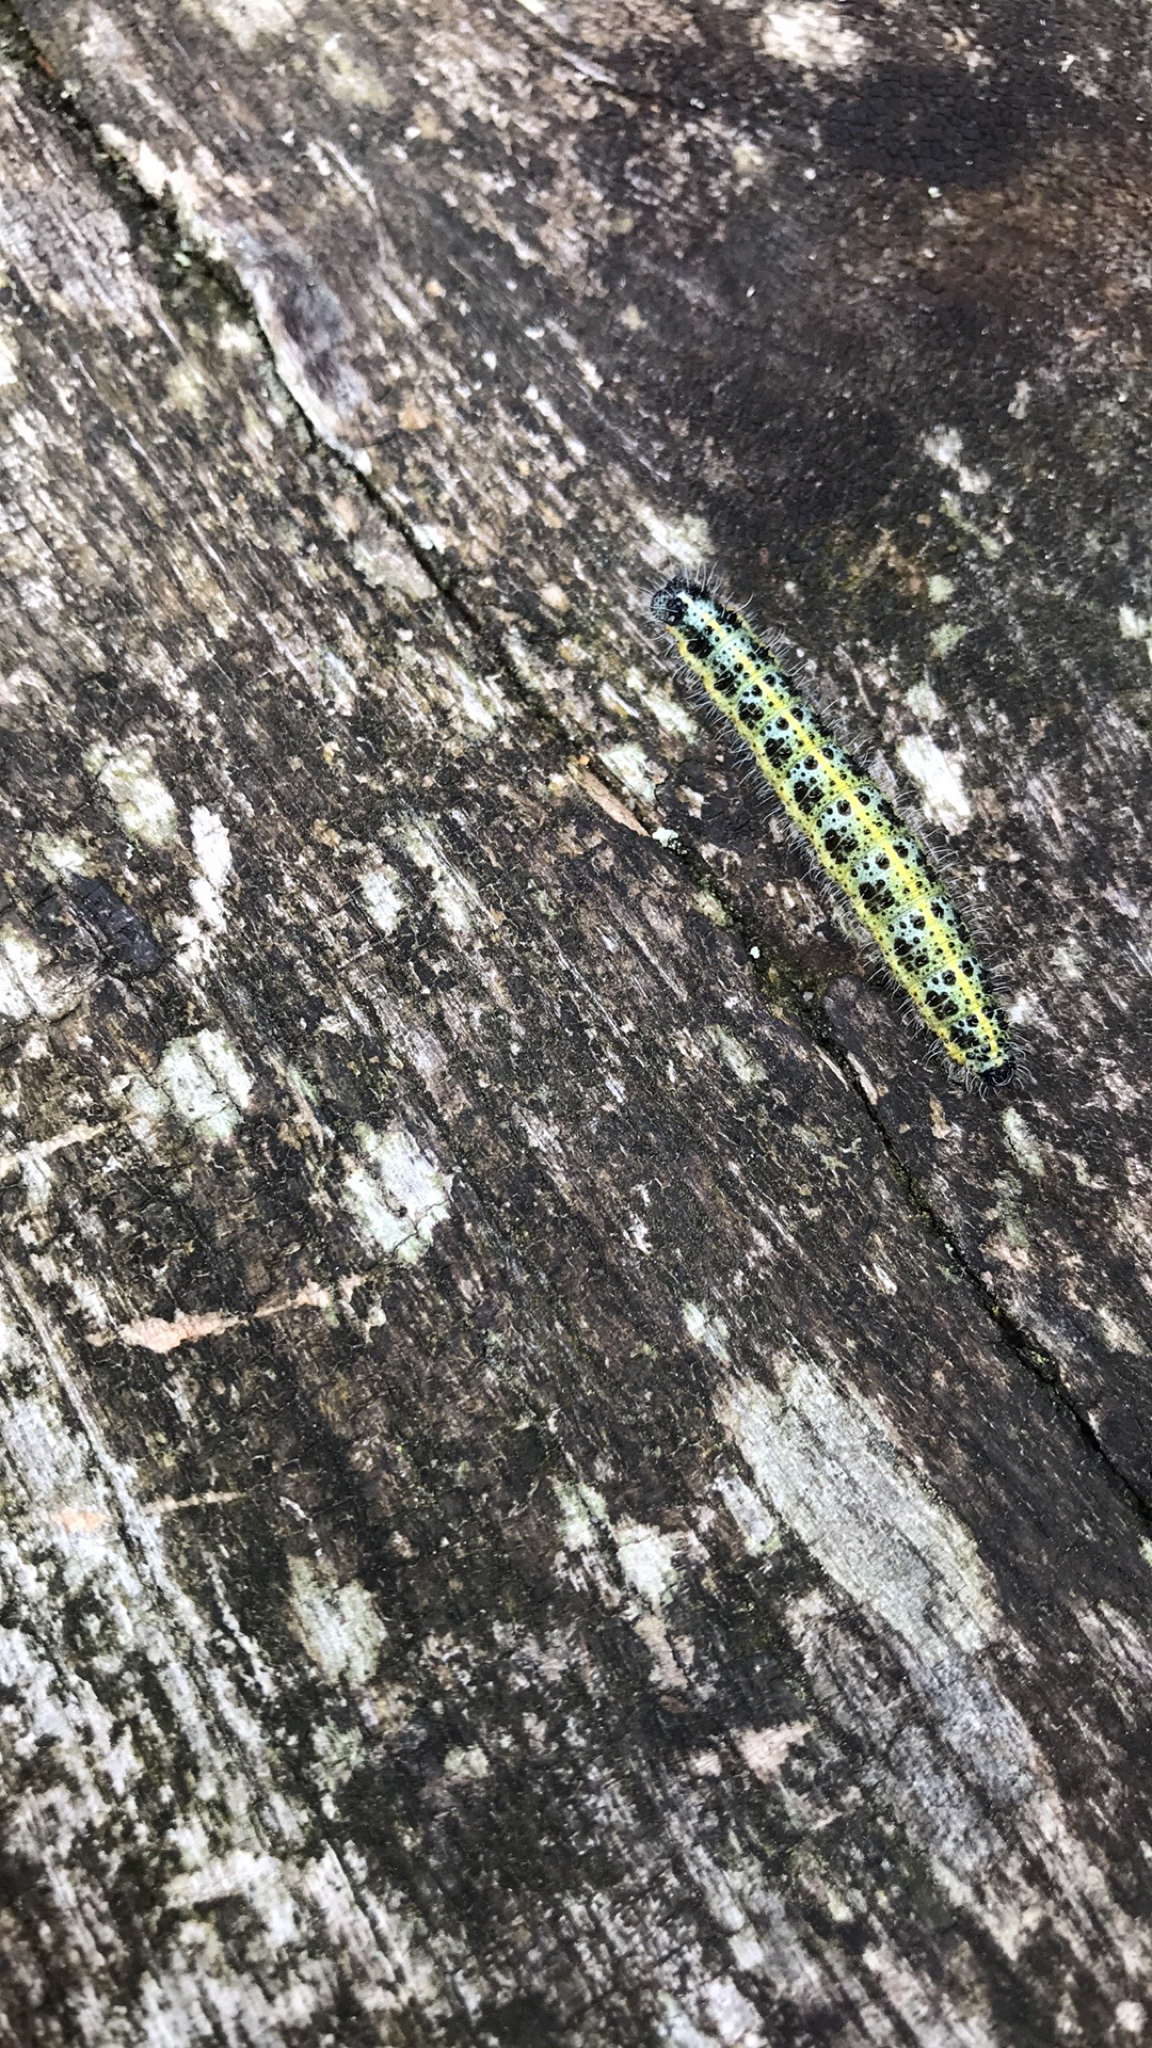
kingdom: Animalia
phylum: Arthropoda
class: Insecta
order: Lepidoptera
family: Pieridae
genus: Pieris
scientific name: Pieris brassicae
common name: Large white
